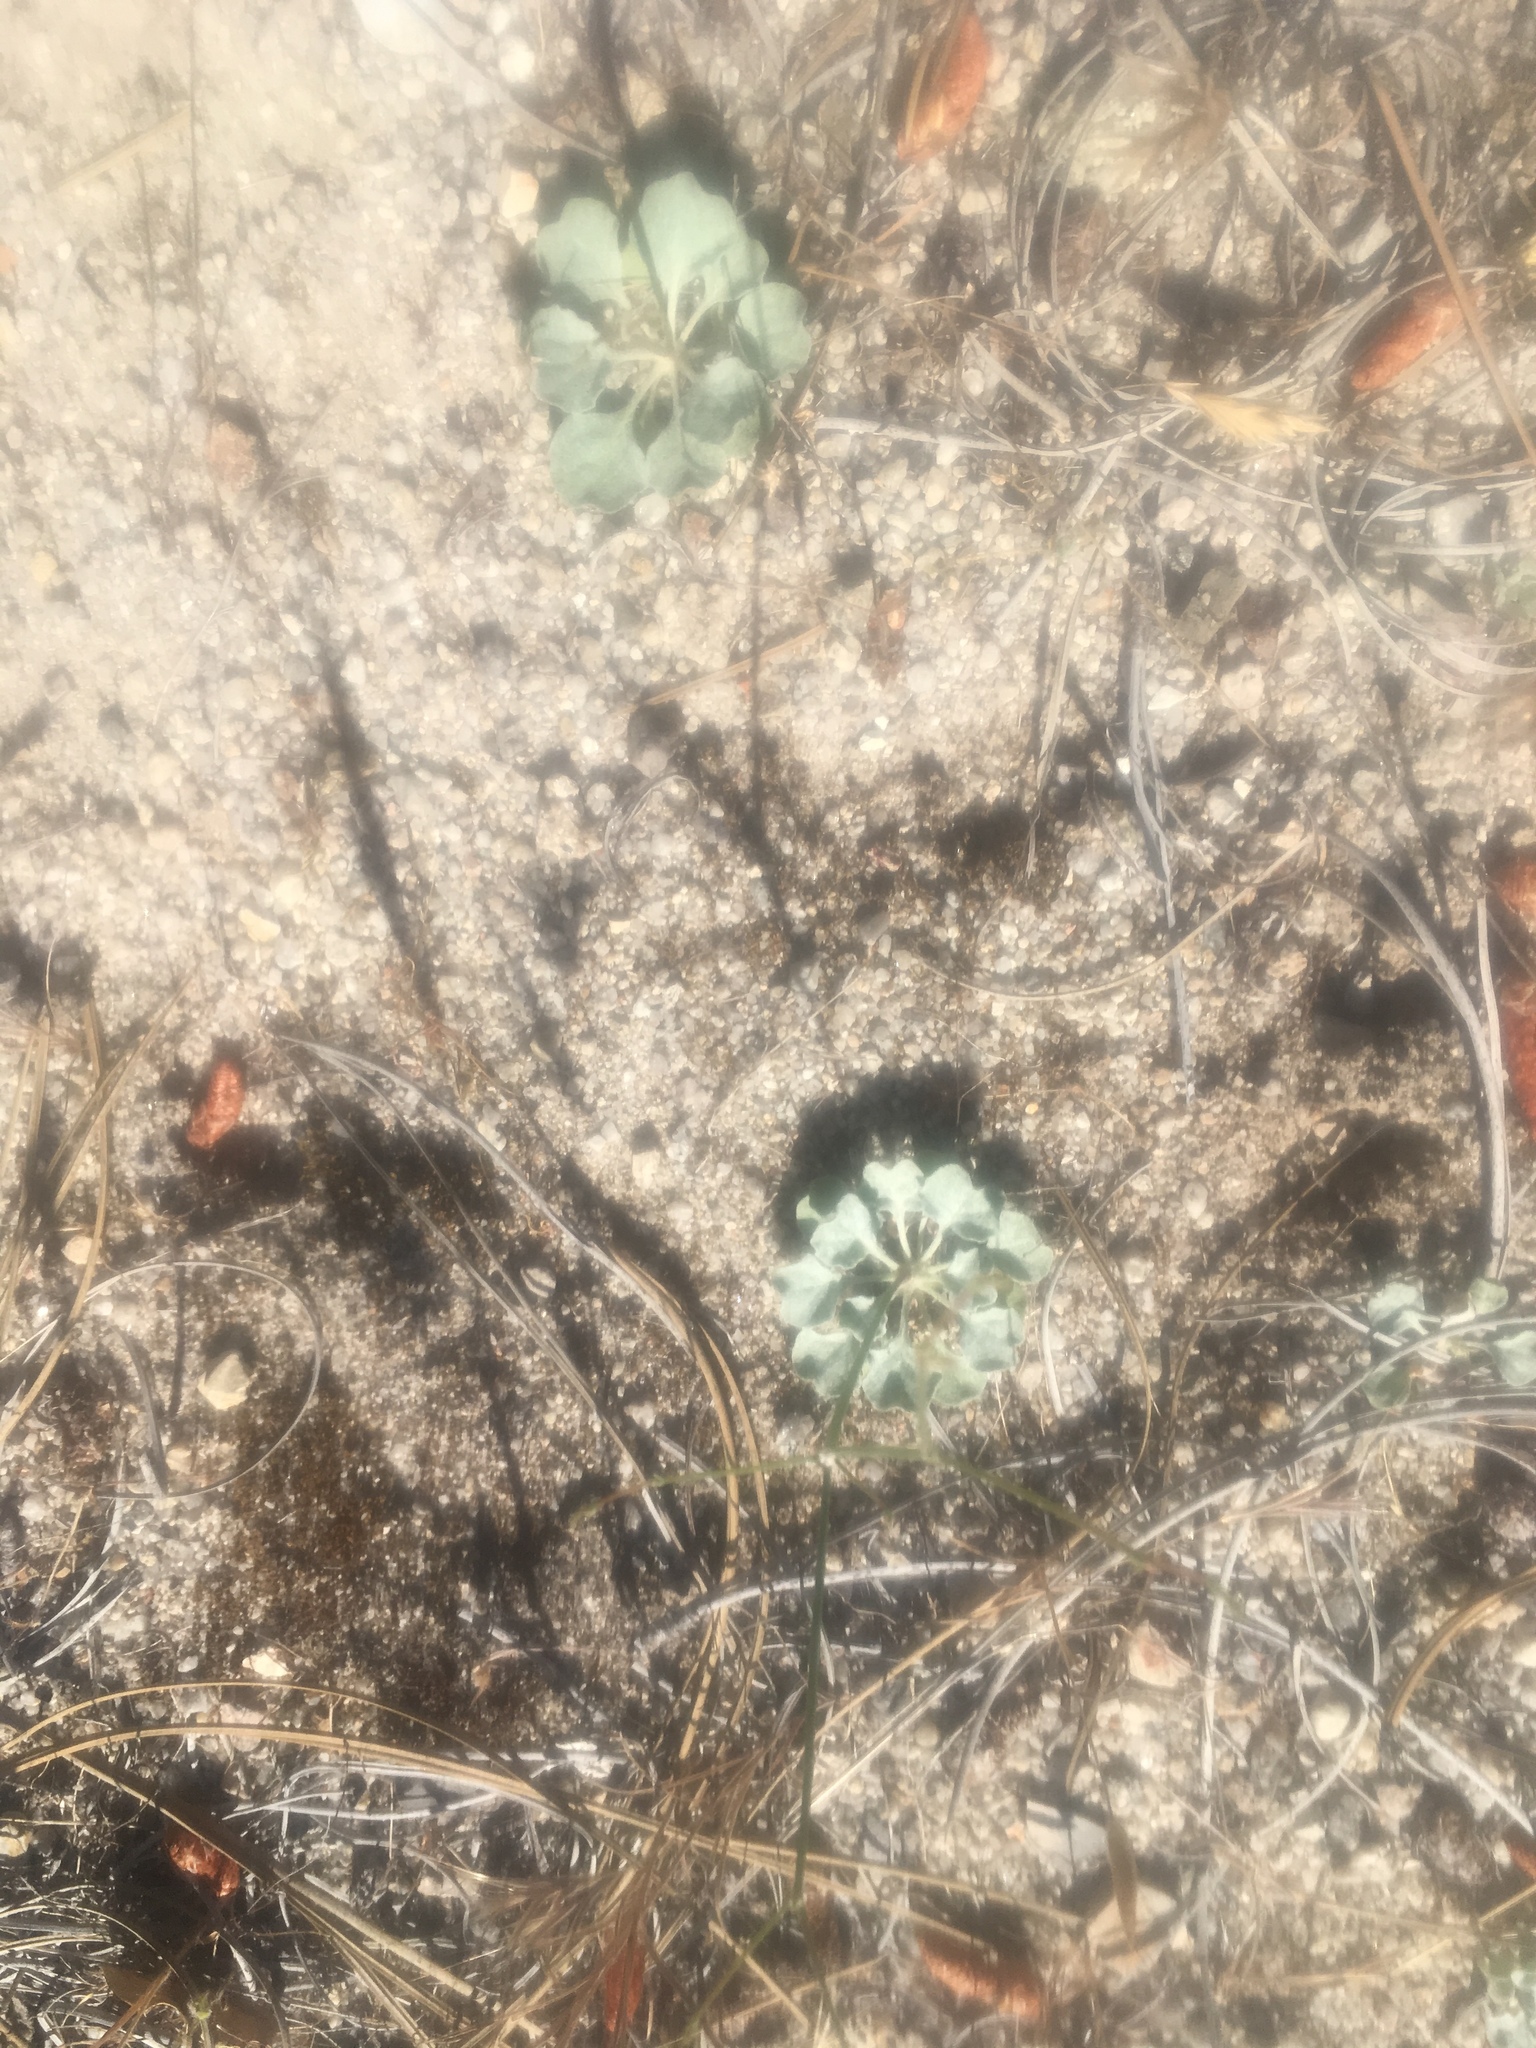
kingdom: Plantae
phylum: Tracheophyta
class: Magnoliopsida
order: Caryophyllales
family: Polygonaceae
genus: Eriogonum
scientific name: Eriogonum elegans
